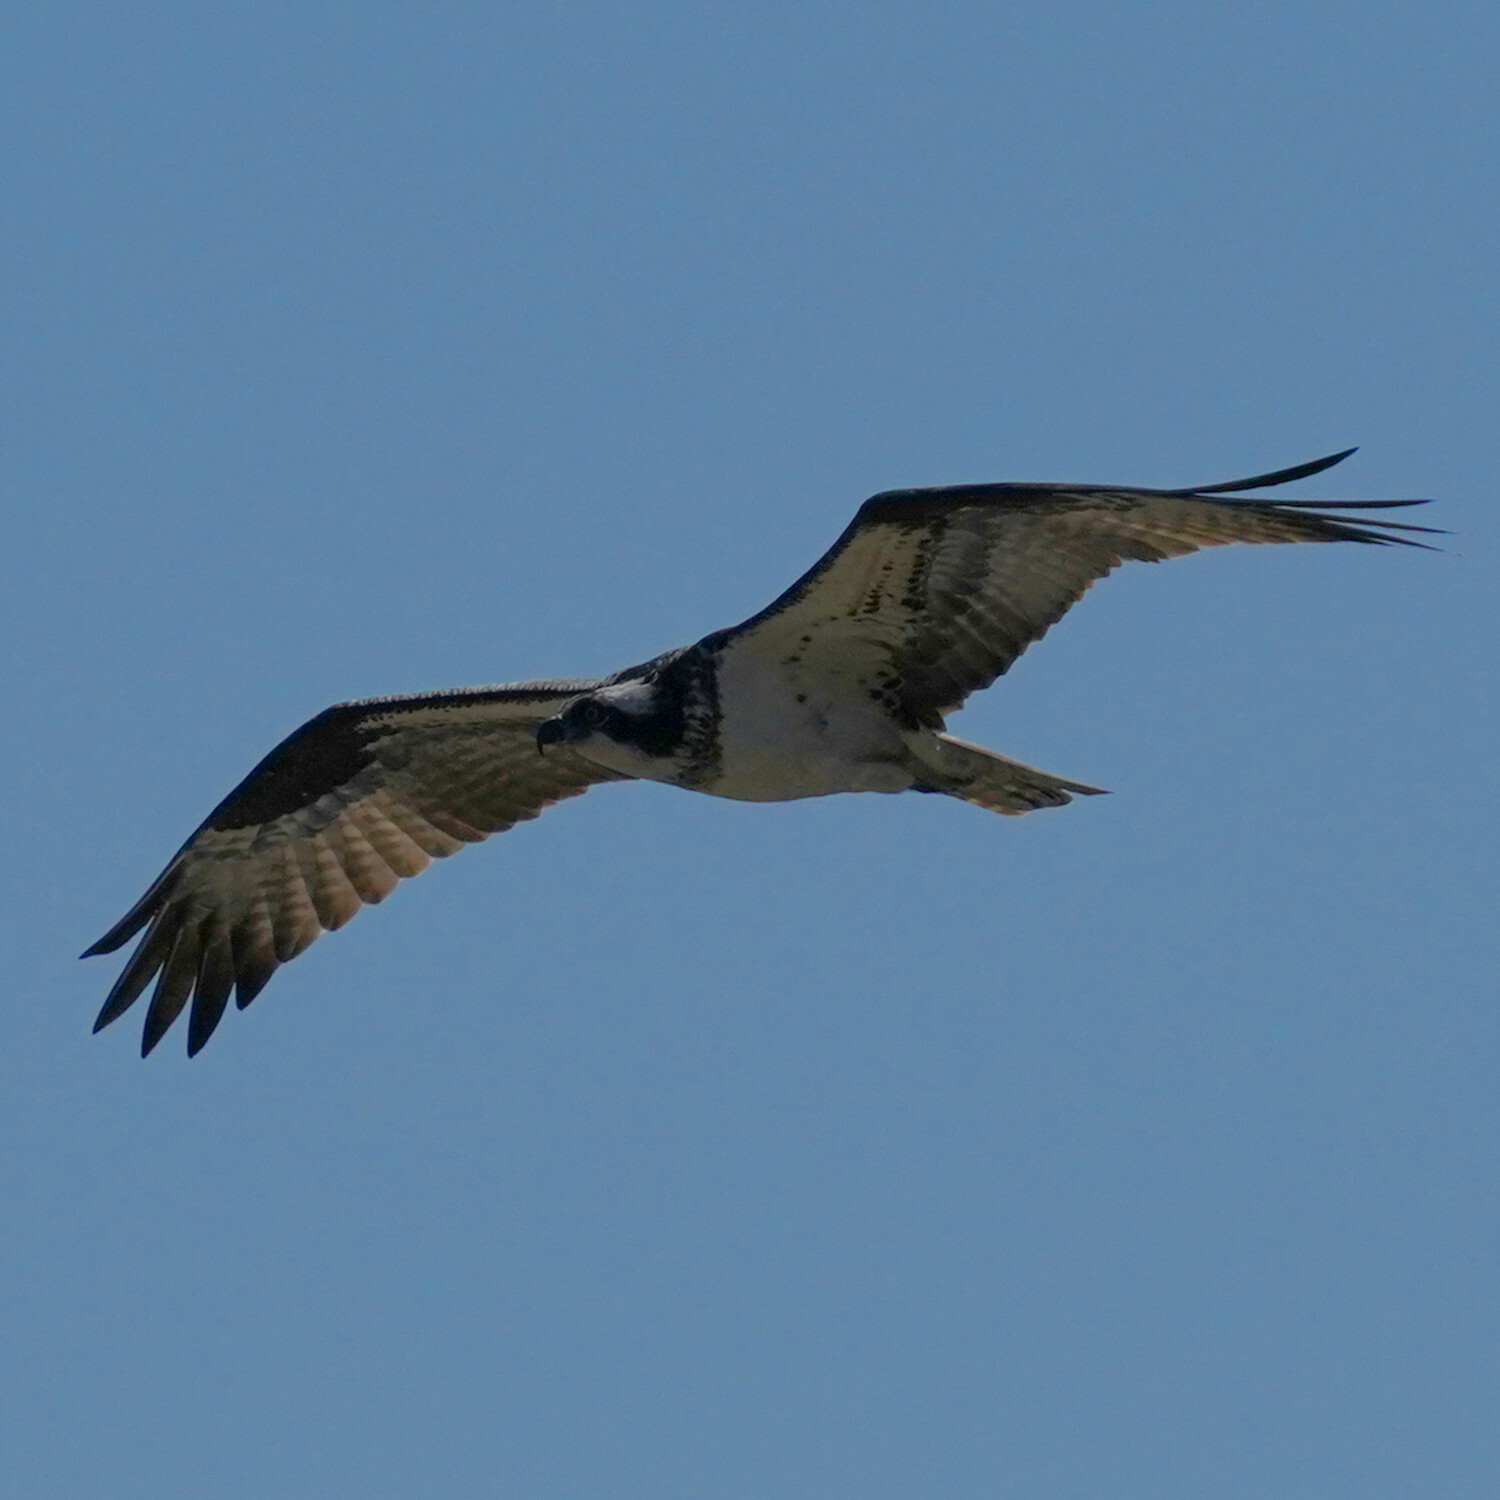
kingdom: Animalia
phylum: Chordata
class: Aves
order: Accipitriformes
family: Pandionidae
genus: Pandion
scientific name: Pandion haliaetus
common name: Osprey
